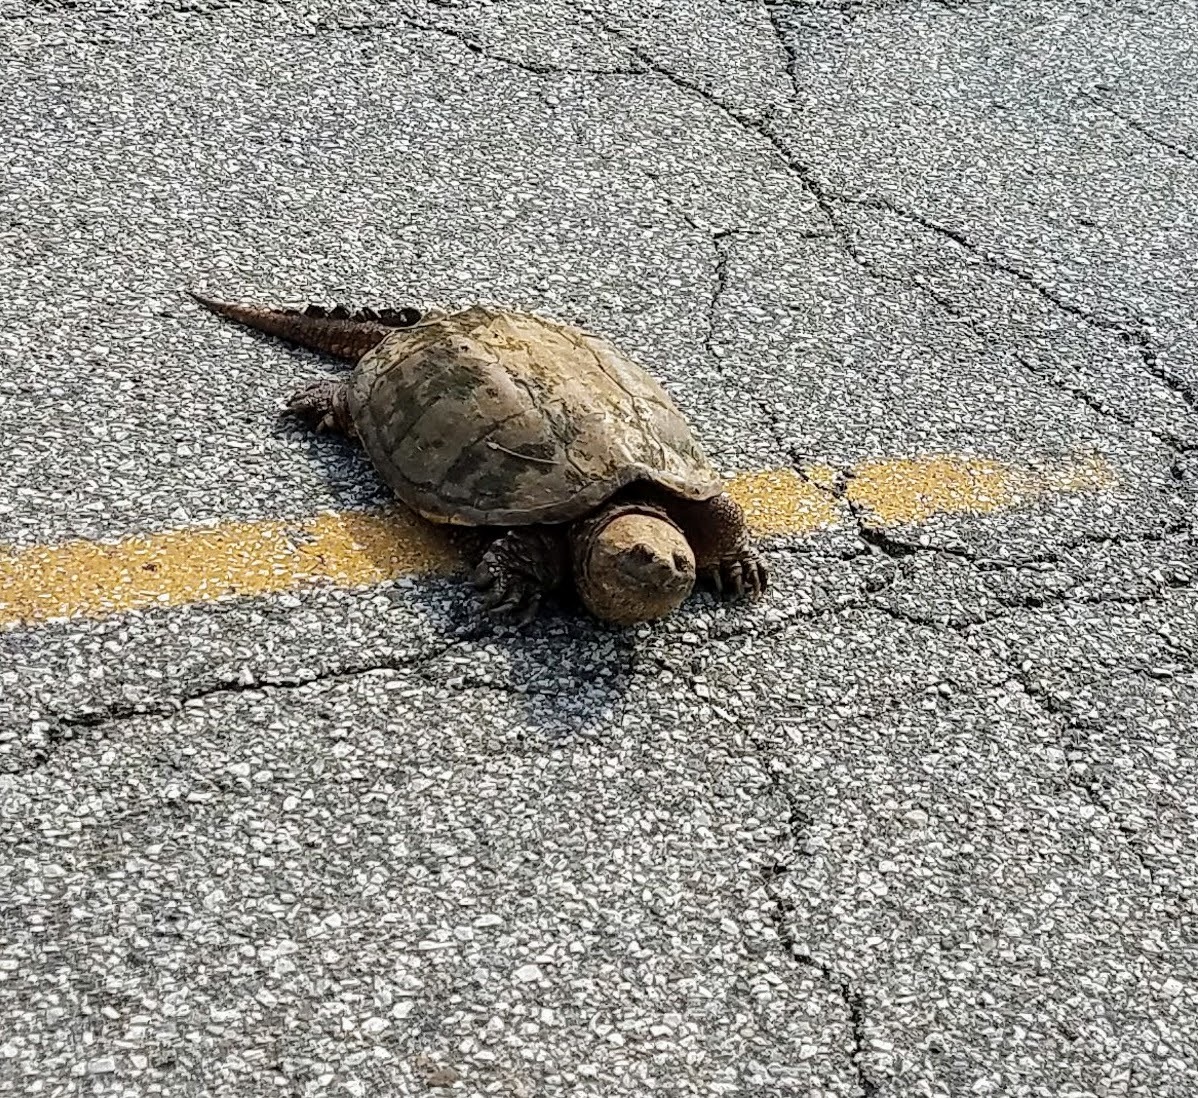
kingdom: Animalia
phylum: Chordata
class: Testudines
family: Chelydridae
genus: Chelydra
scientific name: Chelydra serpentina
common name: Common snapping turtle
